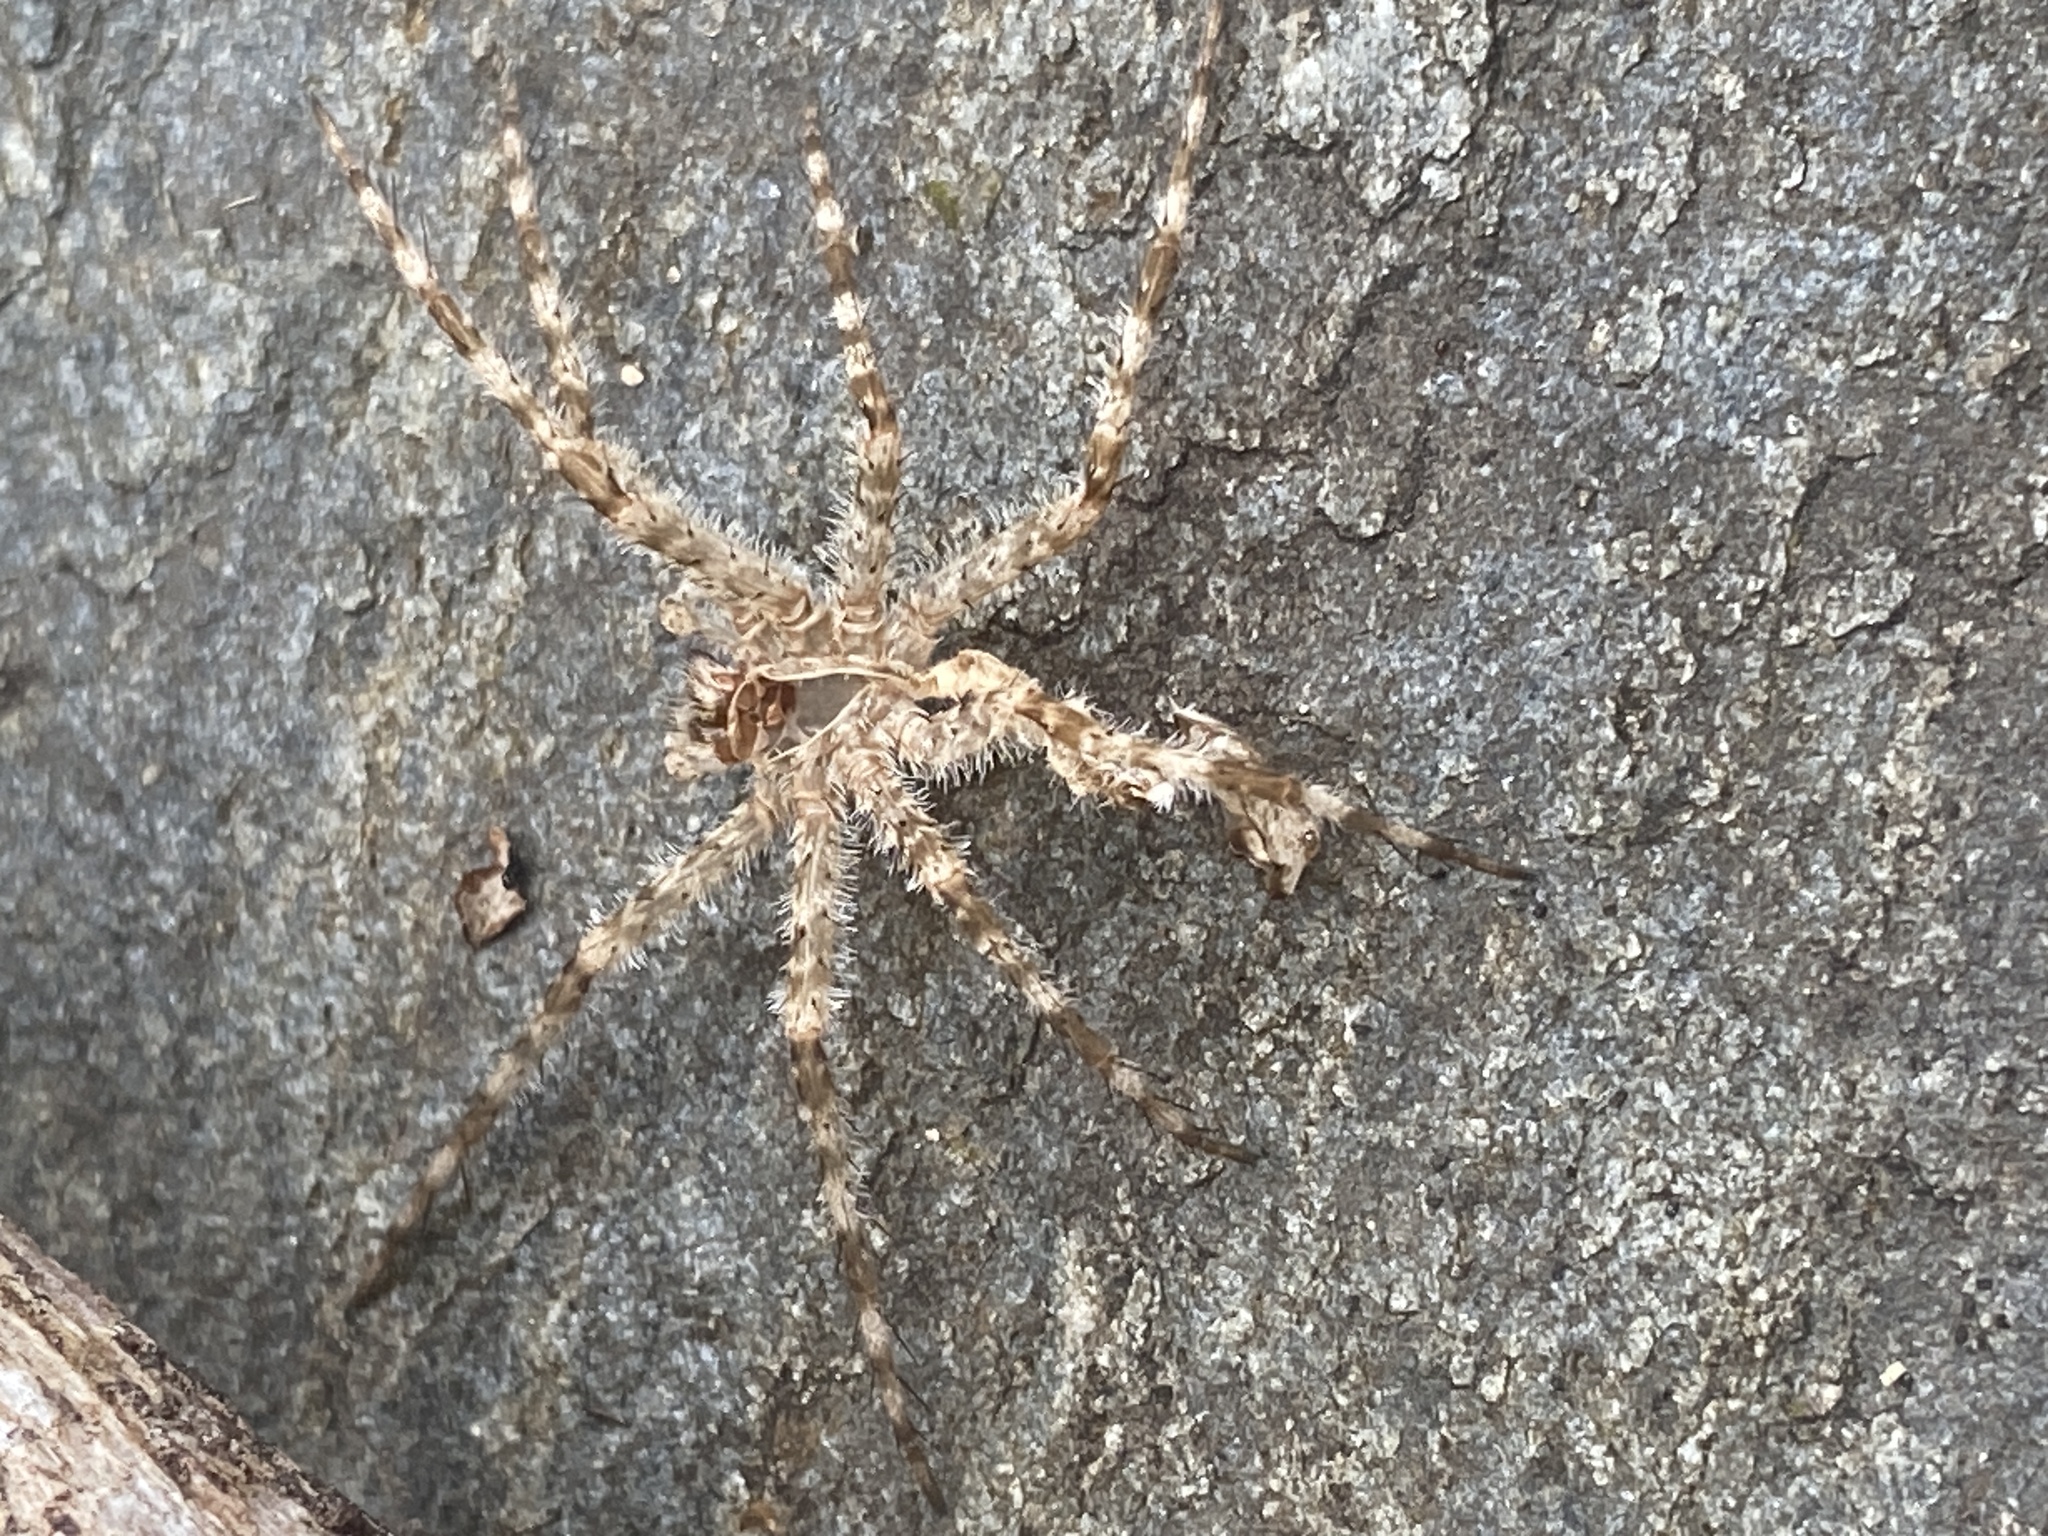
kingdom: Animalia
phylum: Arthropoda
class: Arachnida
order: Araneae
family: Pisauridae
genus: Dolomedes
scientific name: Dolomedes albineus
